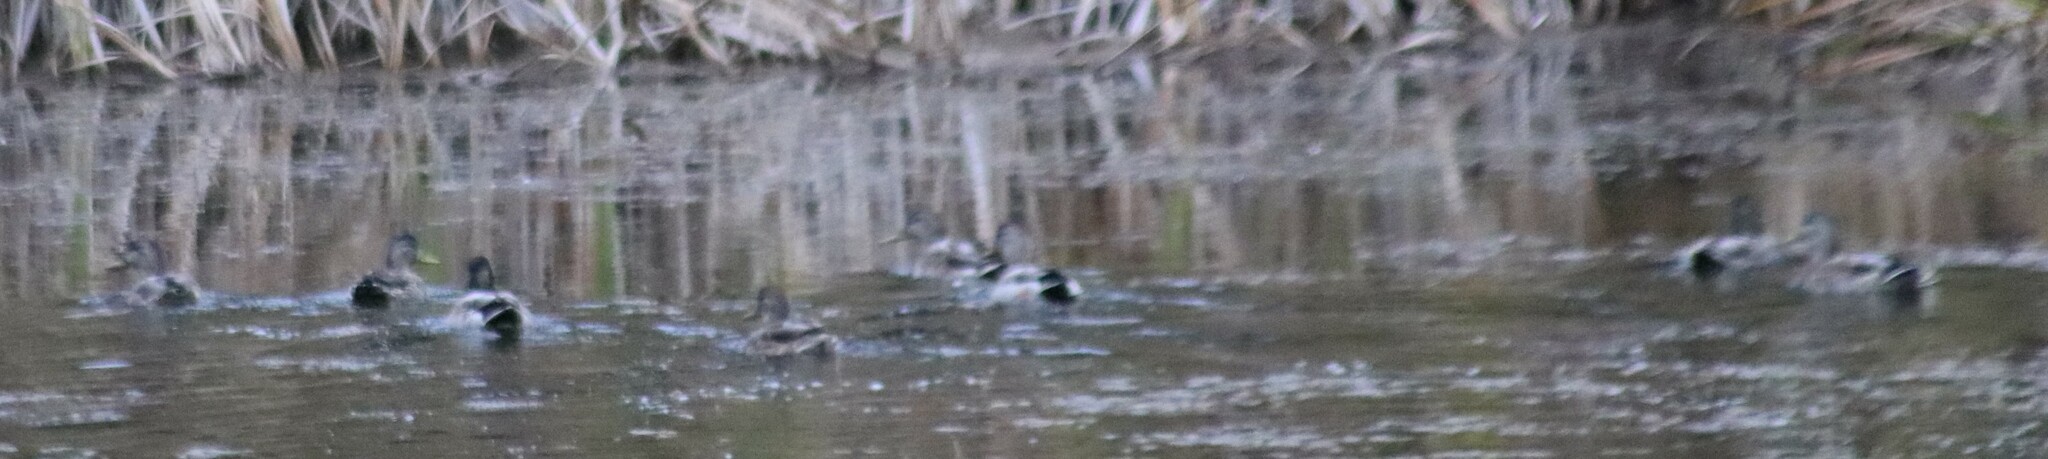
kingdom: Animalia
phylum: Chordata
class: Aves
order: Anseriformes
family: Anatidae
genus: Anas
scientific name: Anas platyrhynchos
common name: Mallard
